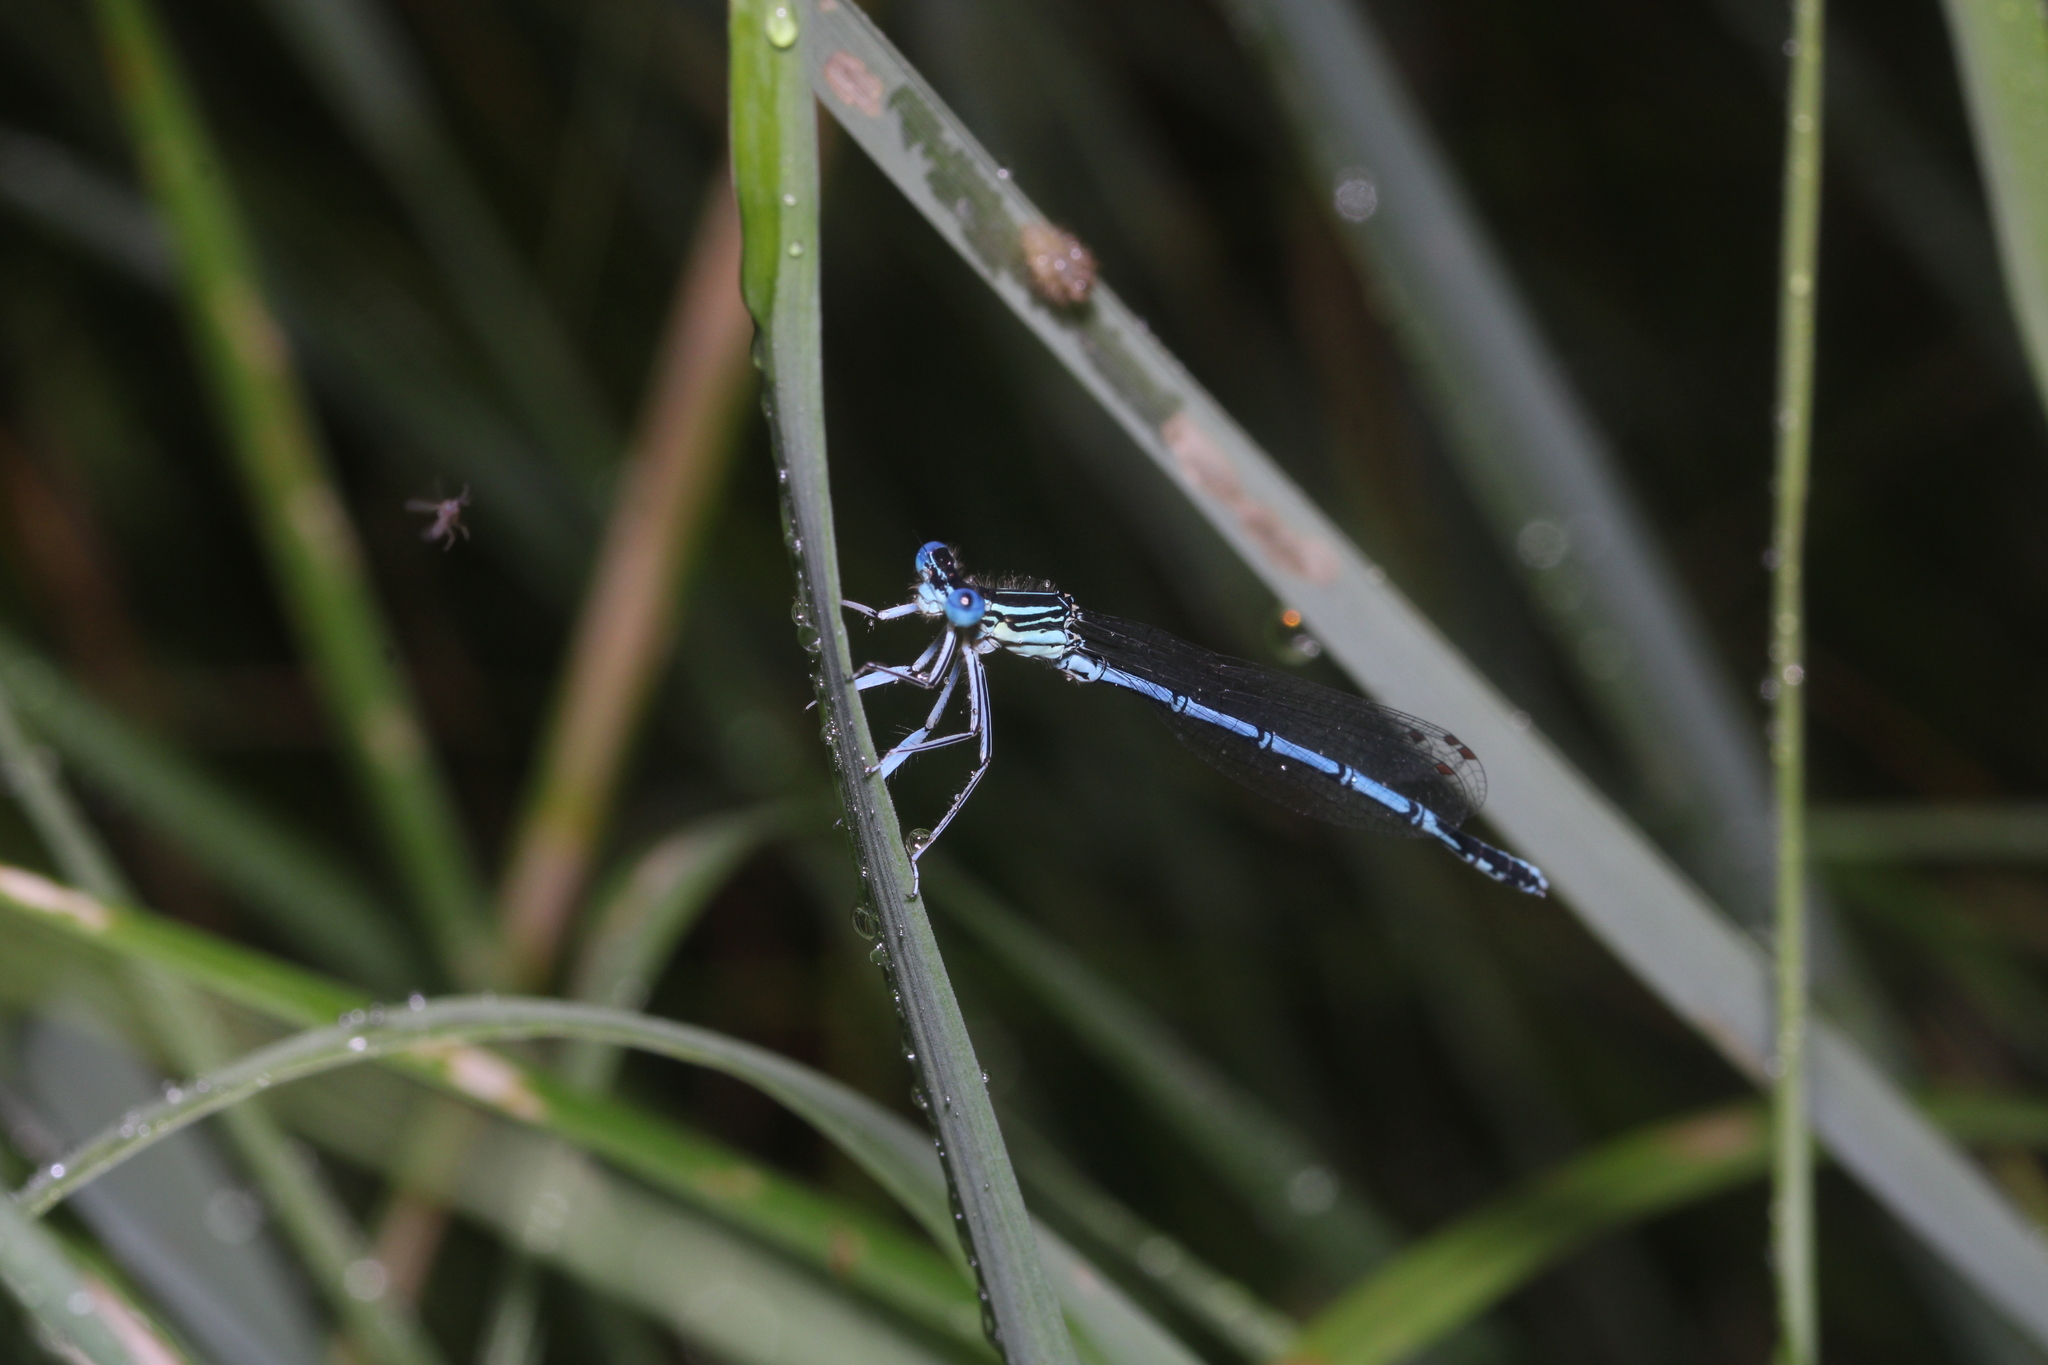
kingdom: Animalia
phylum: Arthropoda
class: Insecta
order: Odonata
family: Platycnemididae
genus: Platycnemis
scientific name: Platycnemis pennipes
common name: White-legged damselfly
